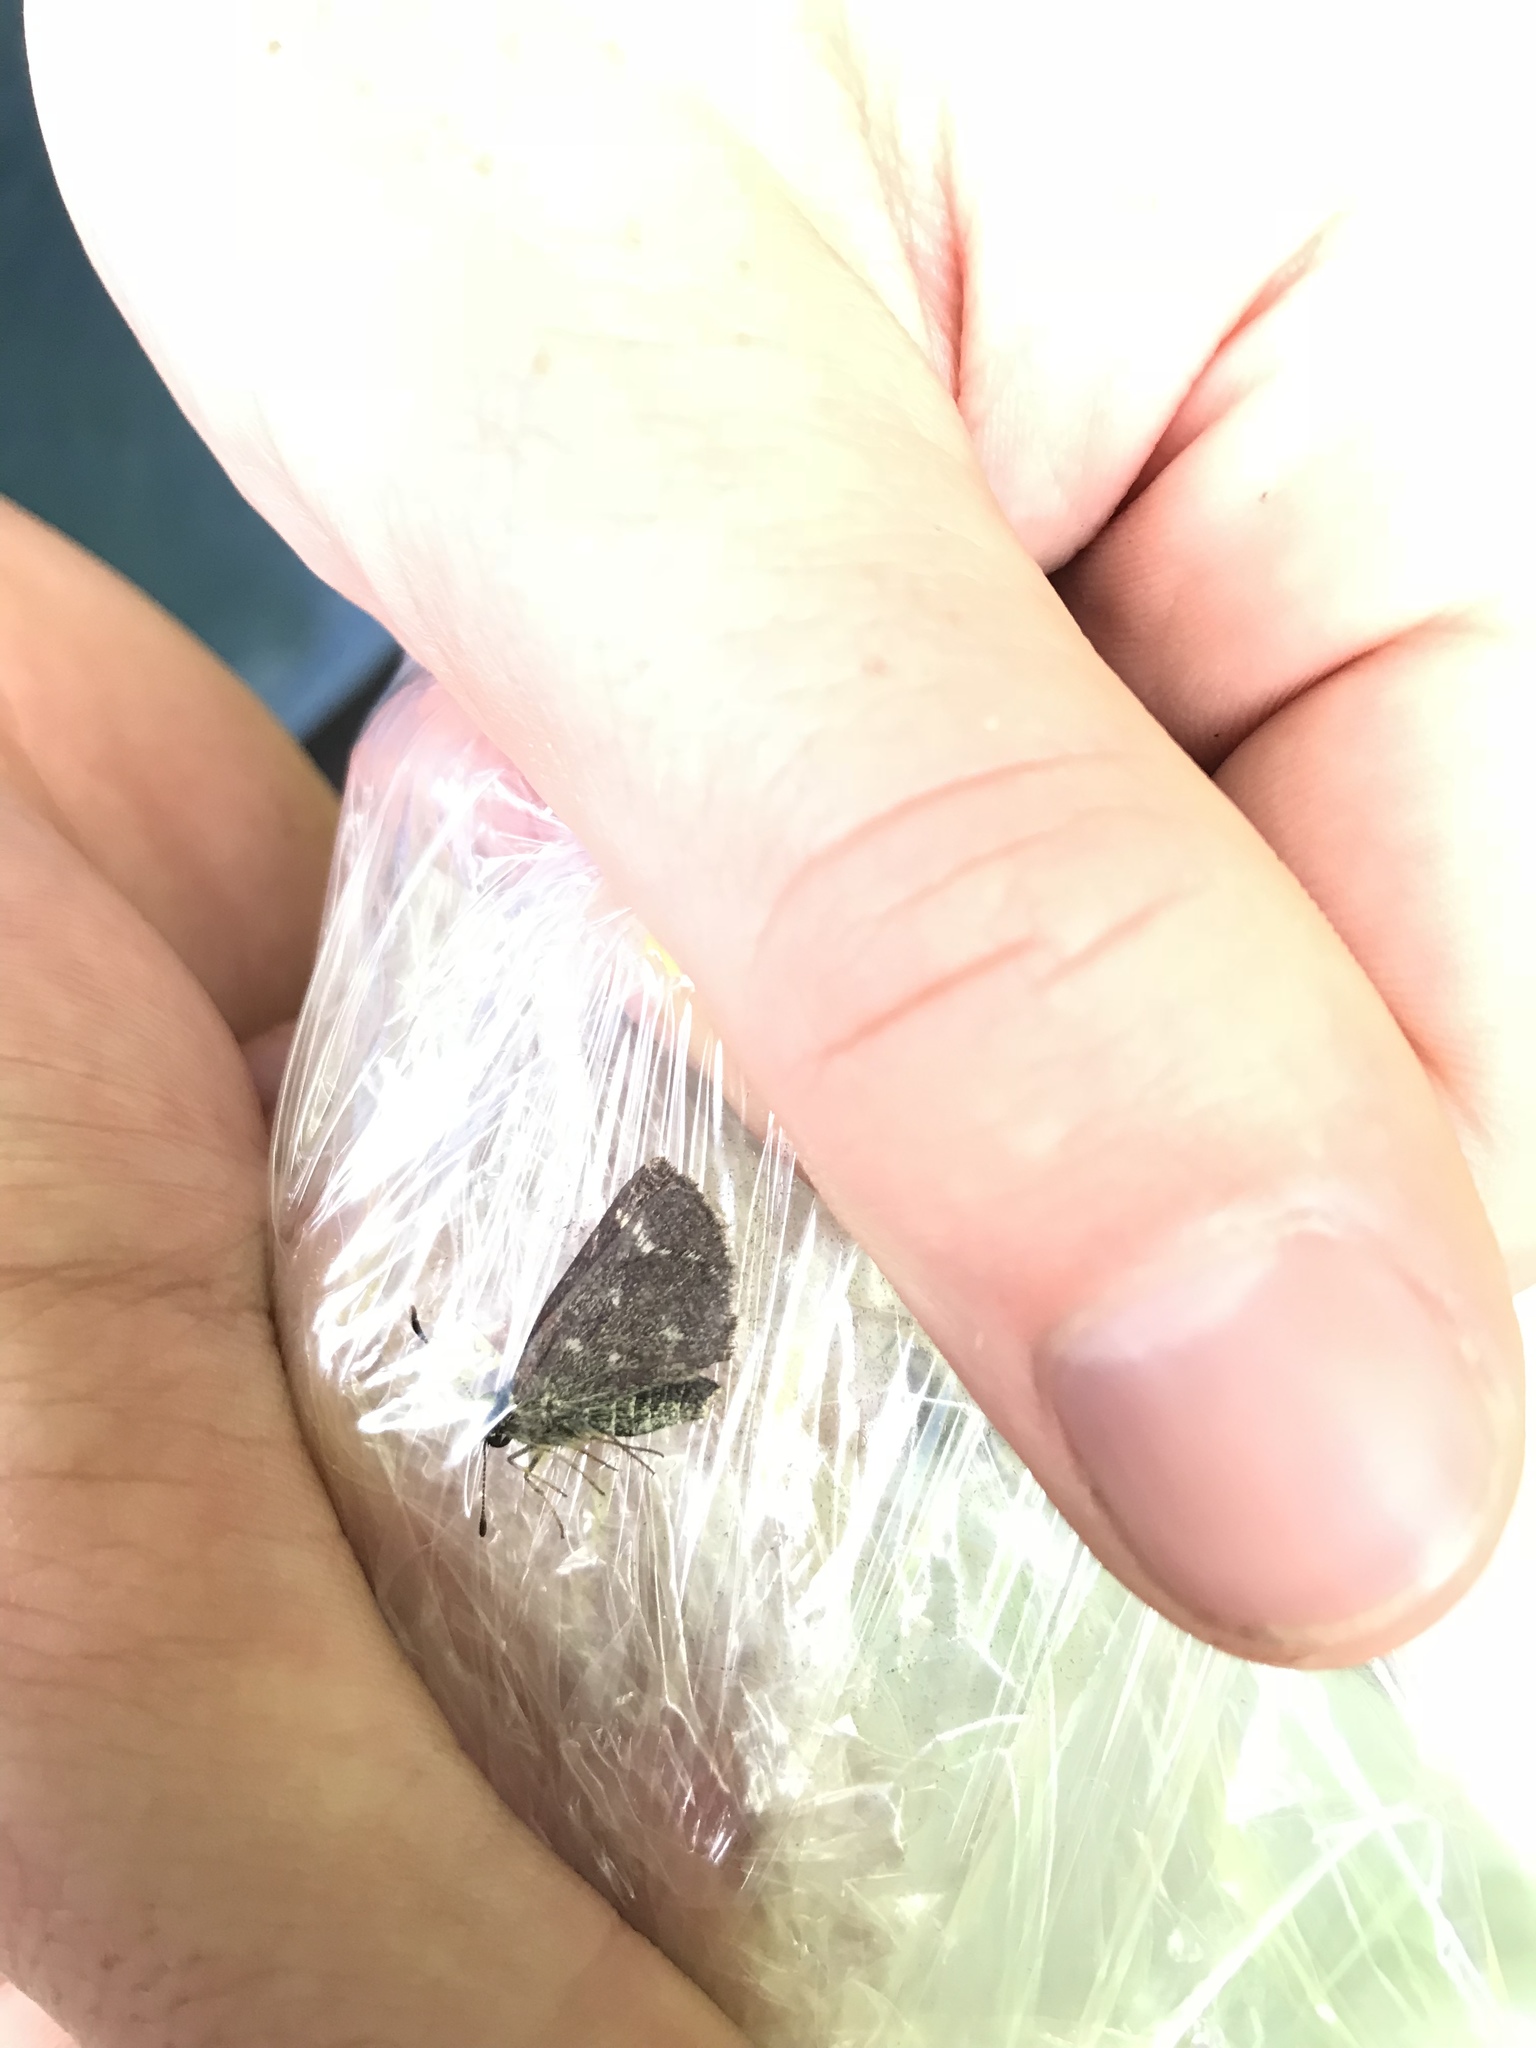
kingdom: Animalia
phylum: Arthropoda
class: Insecta
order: Lepidoptera
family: Hesperiidae
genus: Mastor
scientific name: Mastor hegon
